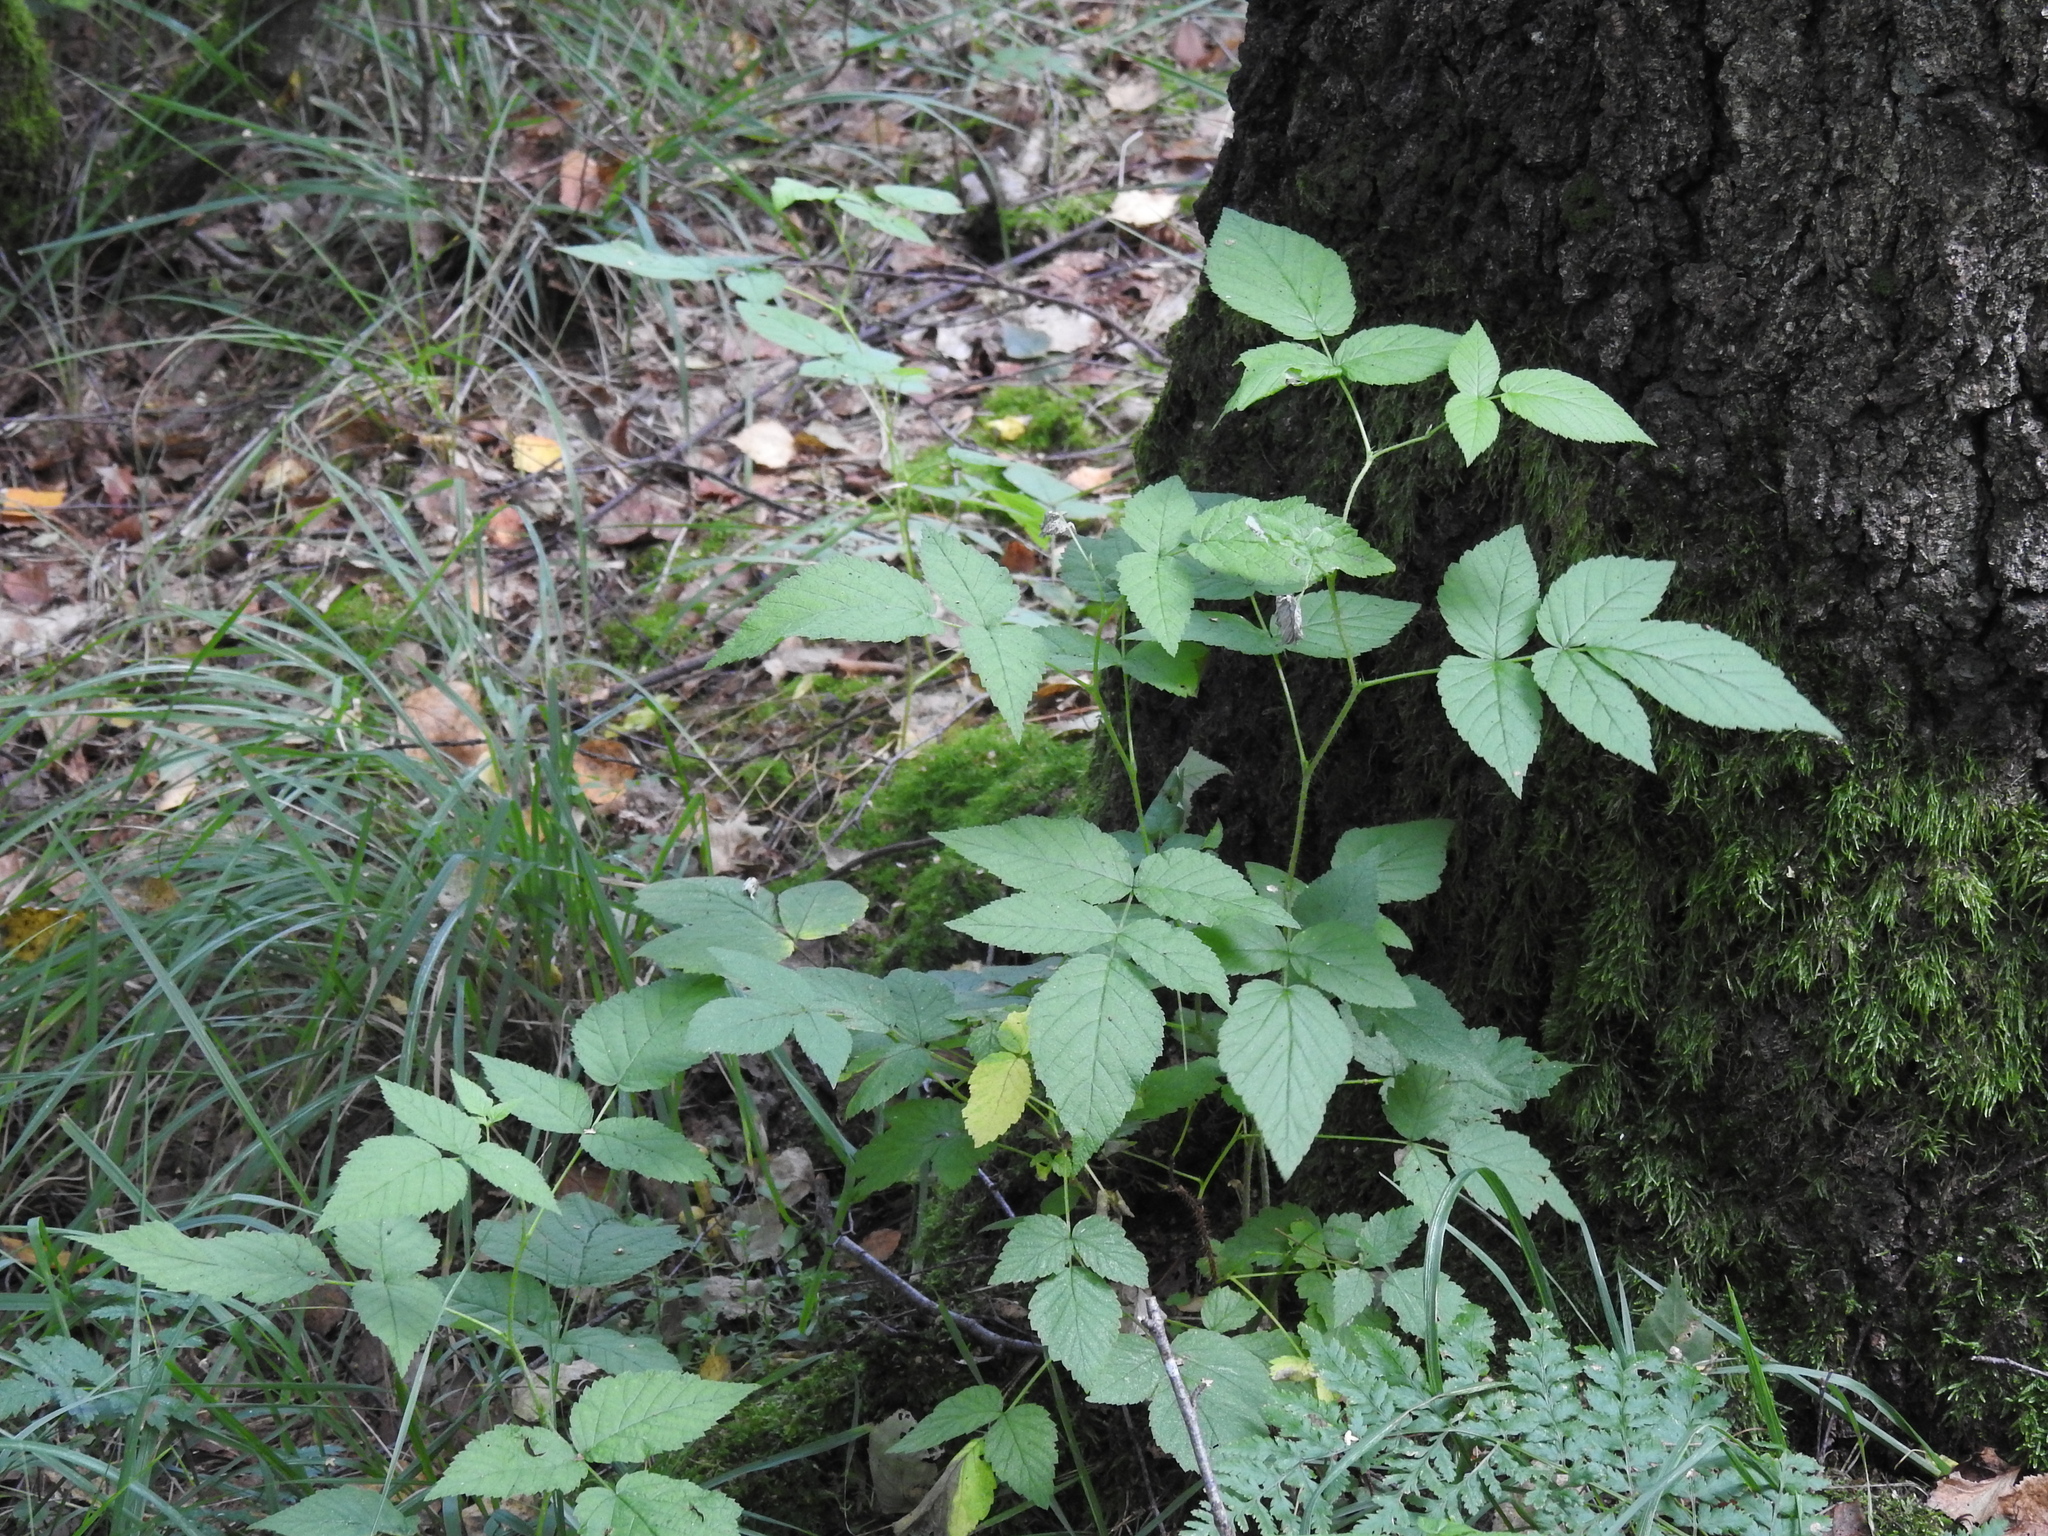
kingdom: Plantae
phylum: Tracheophyta
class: Magnoliopsida
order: Rosales
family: Rosaceae
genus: Rubus
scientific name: Rubus idaeus
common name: Raspberry
